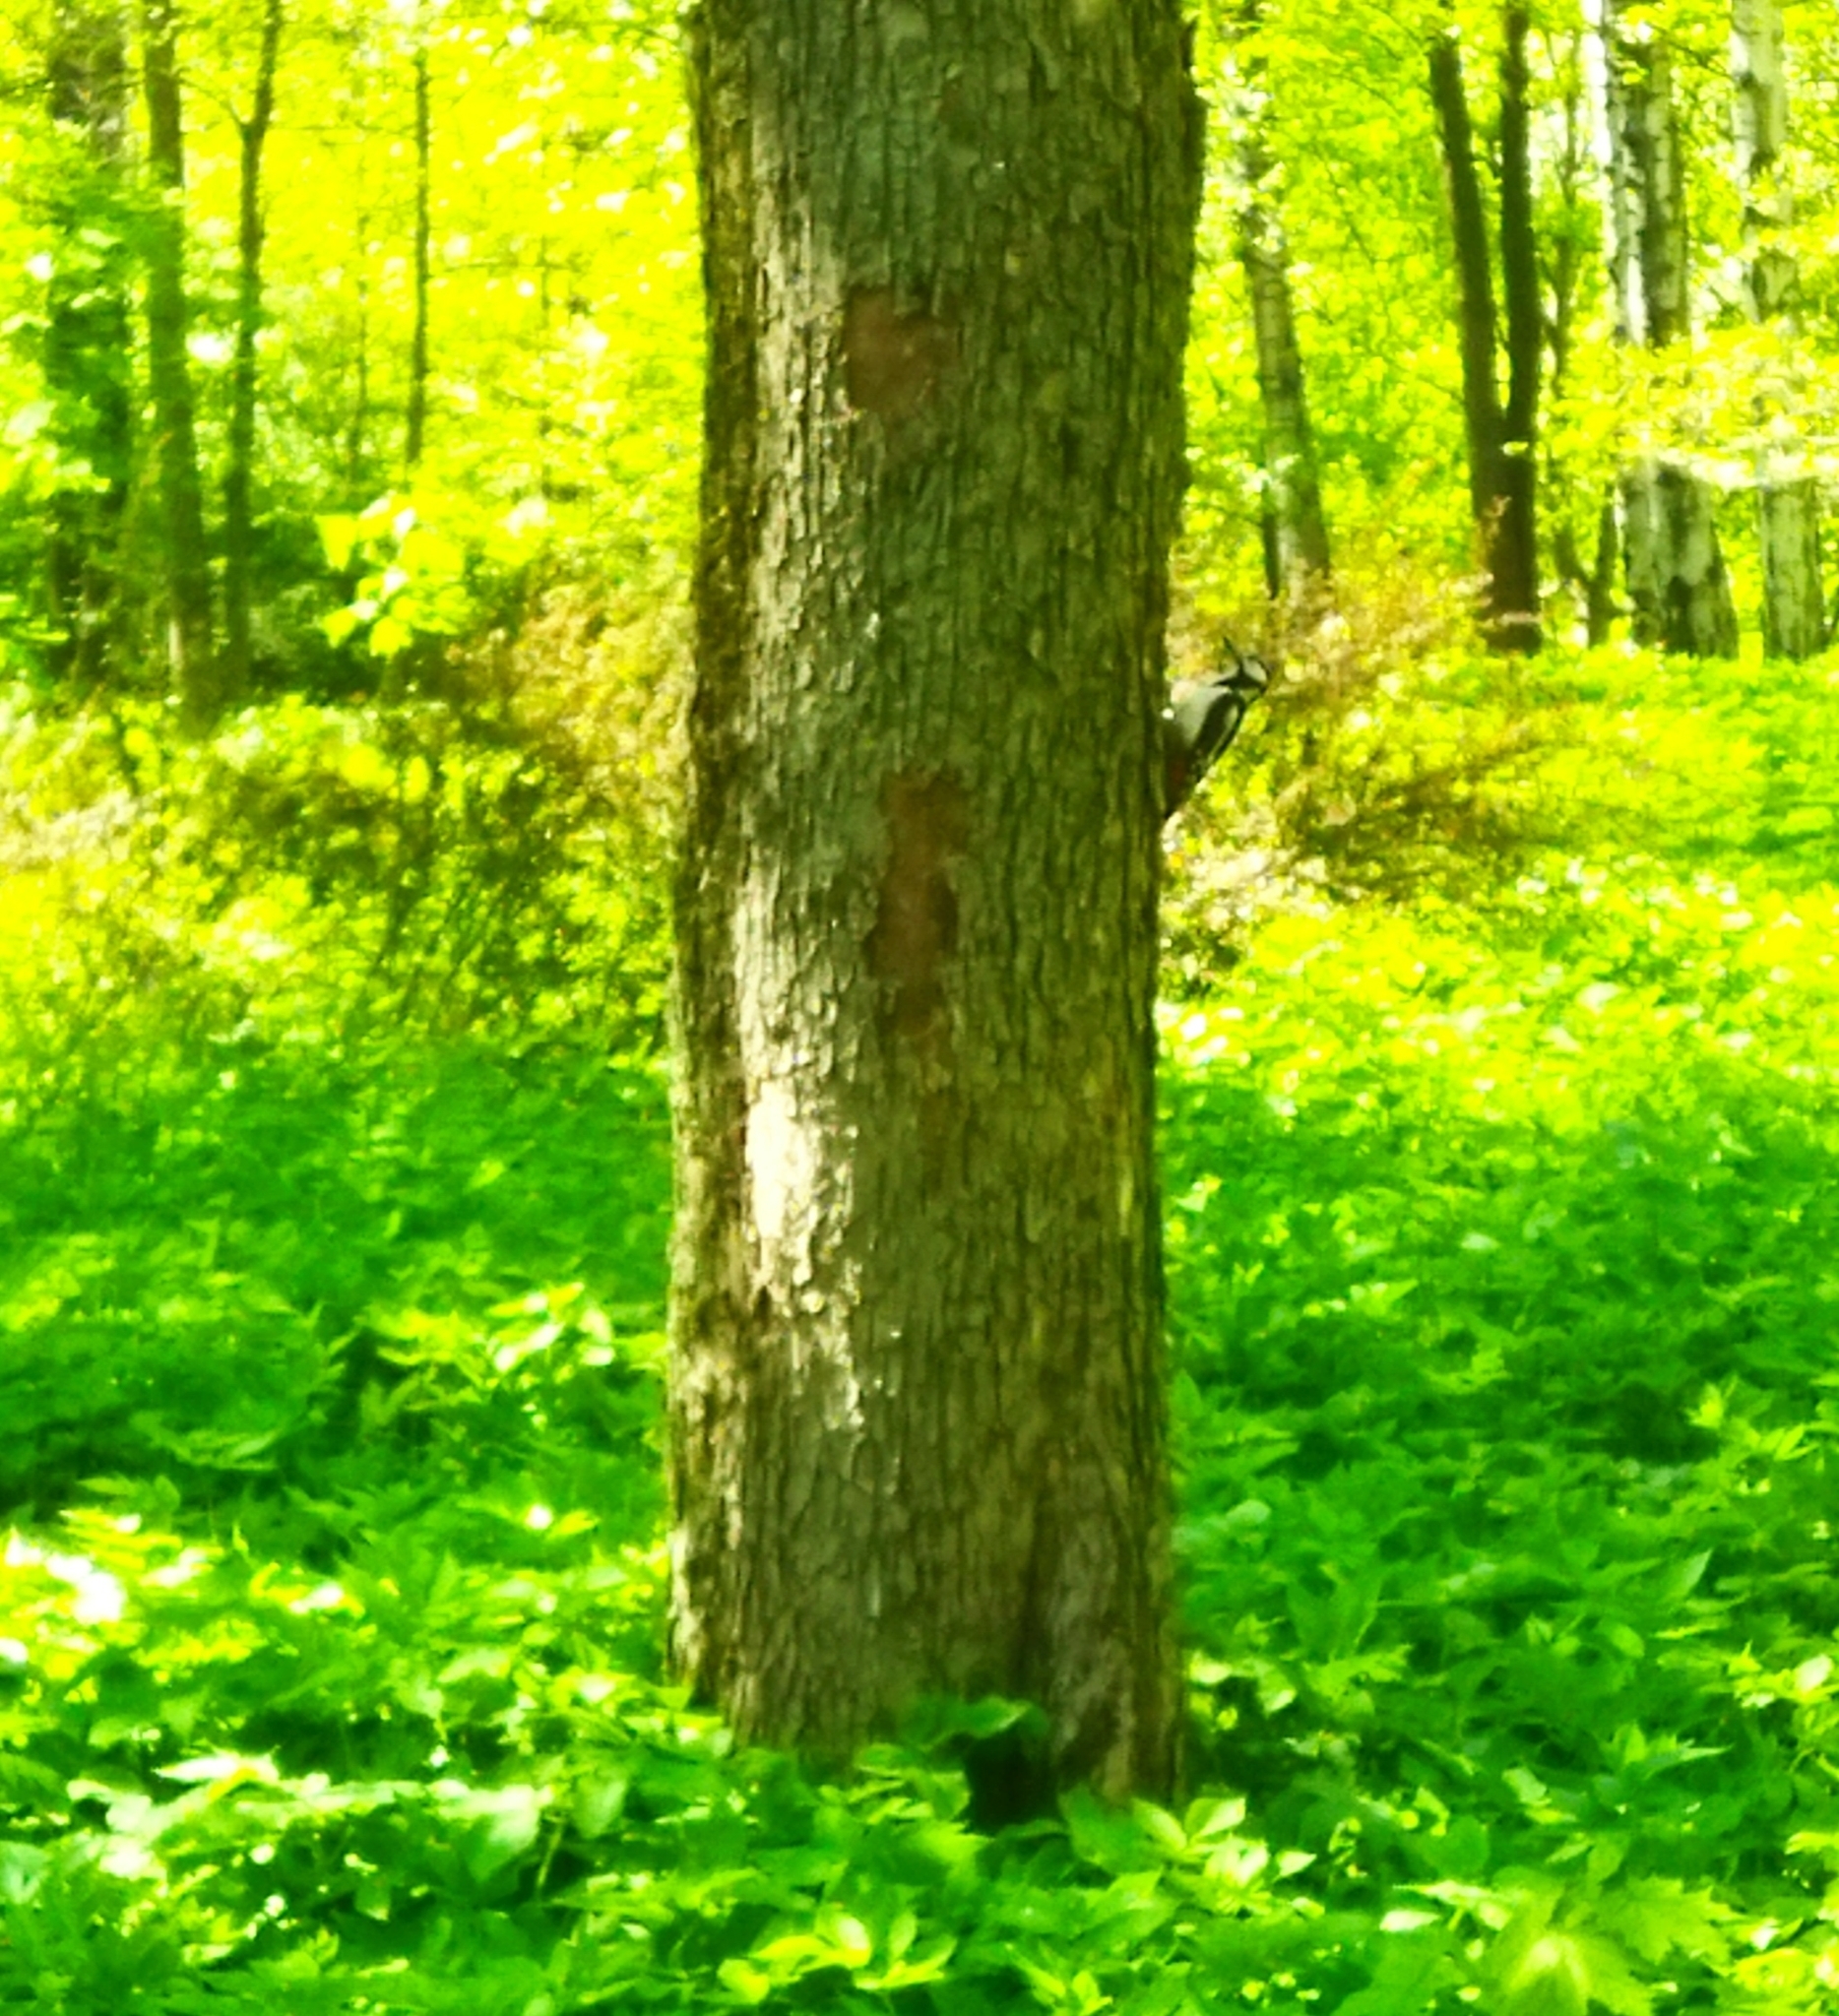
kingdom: Animalia
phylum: Chordata
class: Aves
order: Piciformes
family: Picidae
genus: Dendrocopos
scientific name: Dendrocopos major
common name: Great spotted woodpecker
